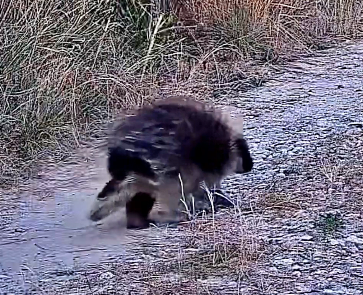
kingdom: Animalia
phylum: Chordata
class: Mammalia
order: Rodentia
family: Erethizontidae
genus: Erethizon
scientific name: Erethizon dorsatus
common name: North american porcupine
